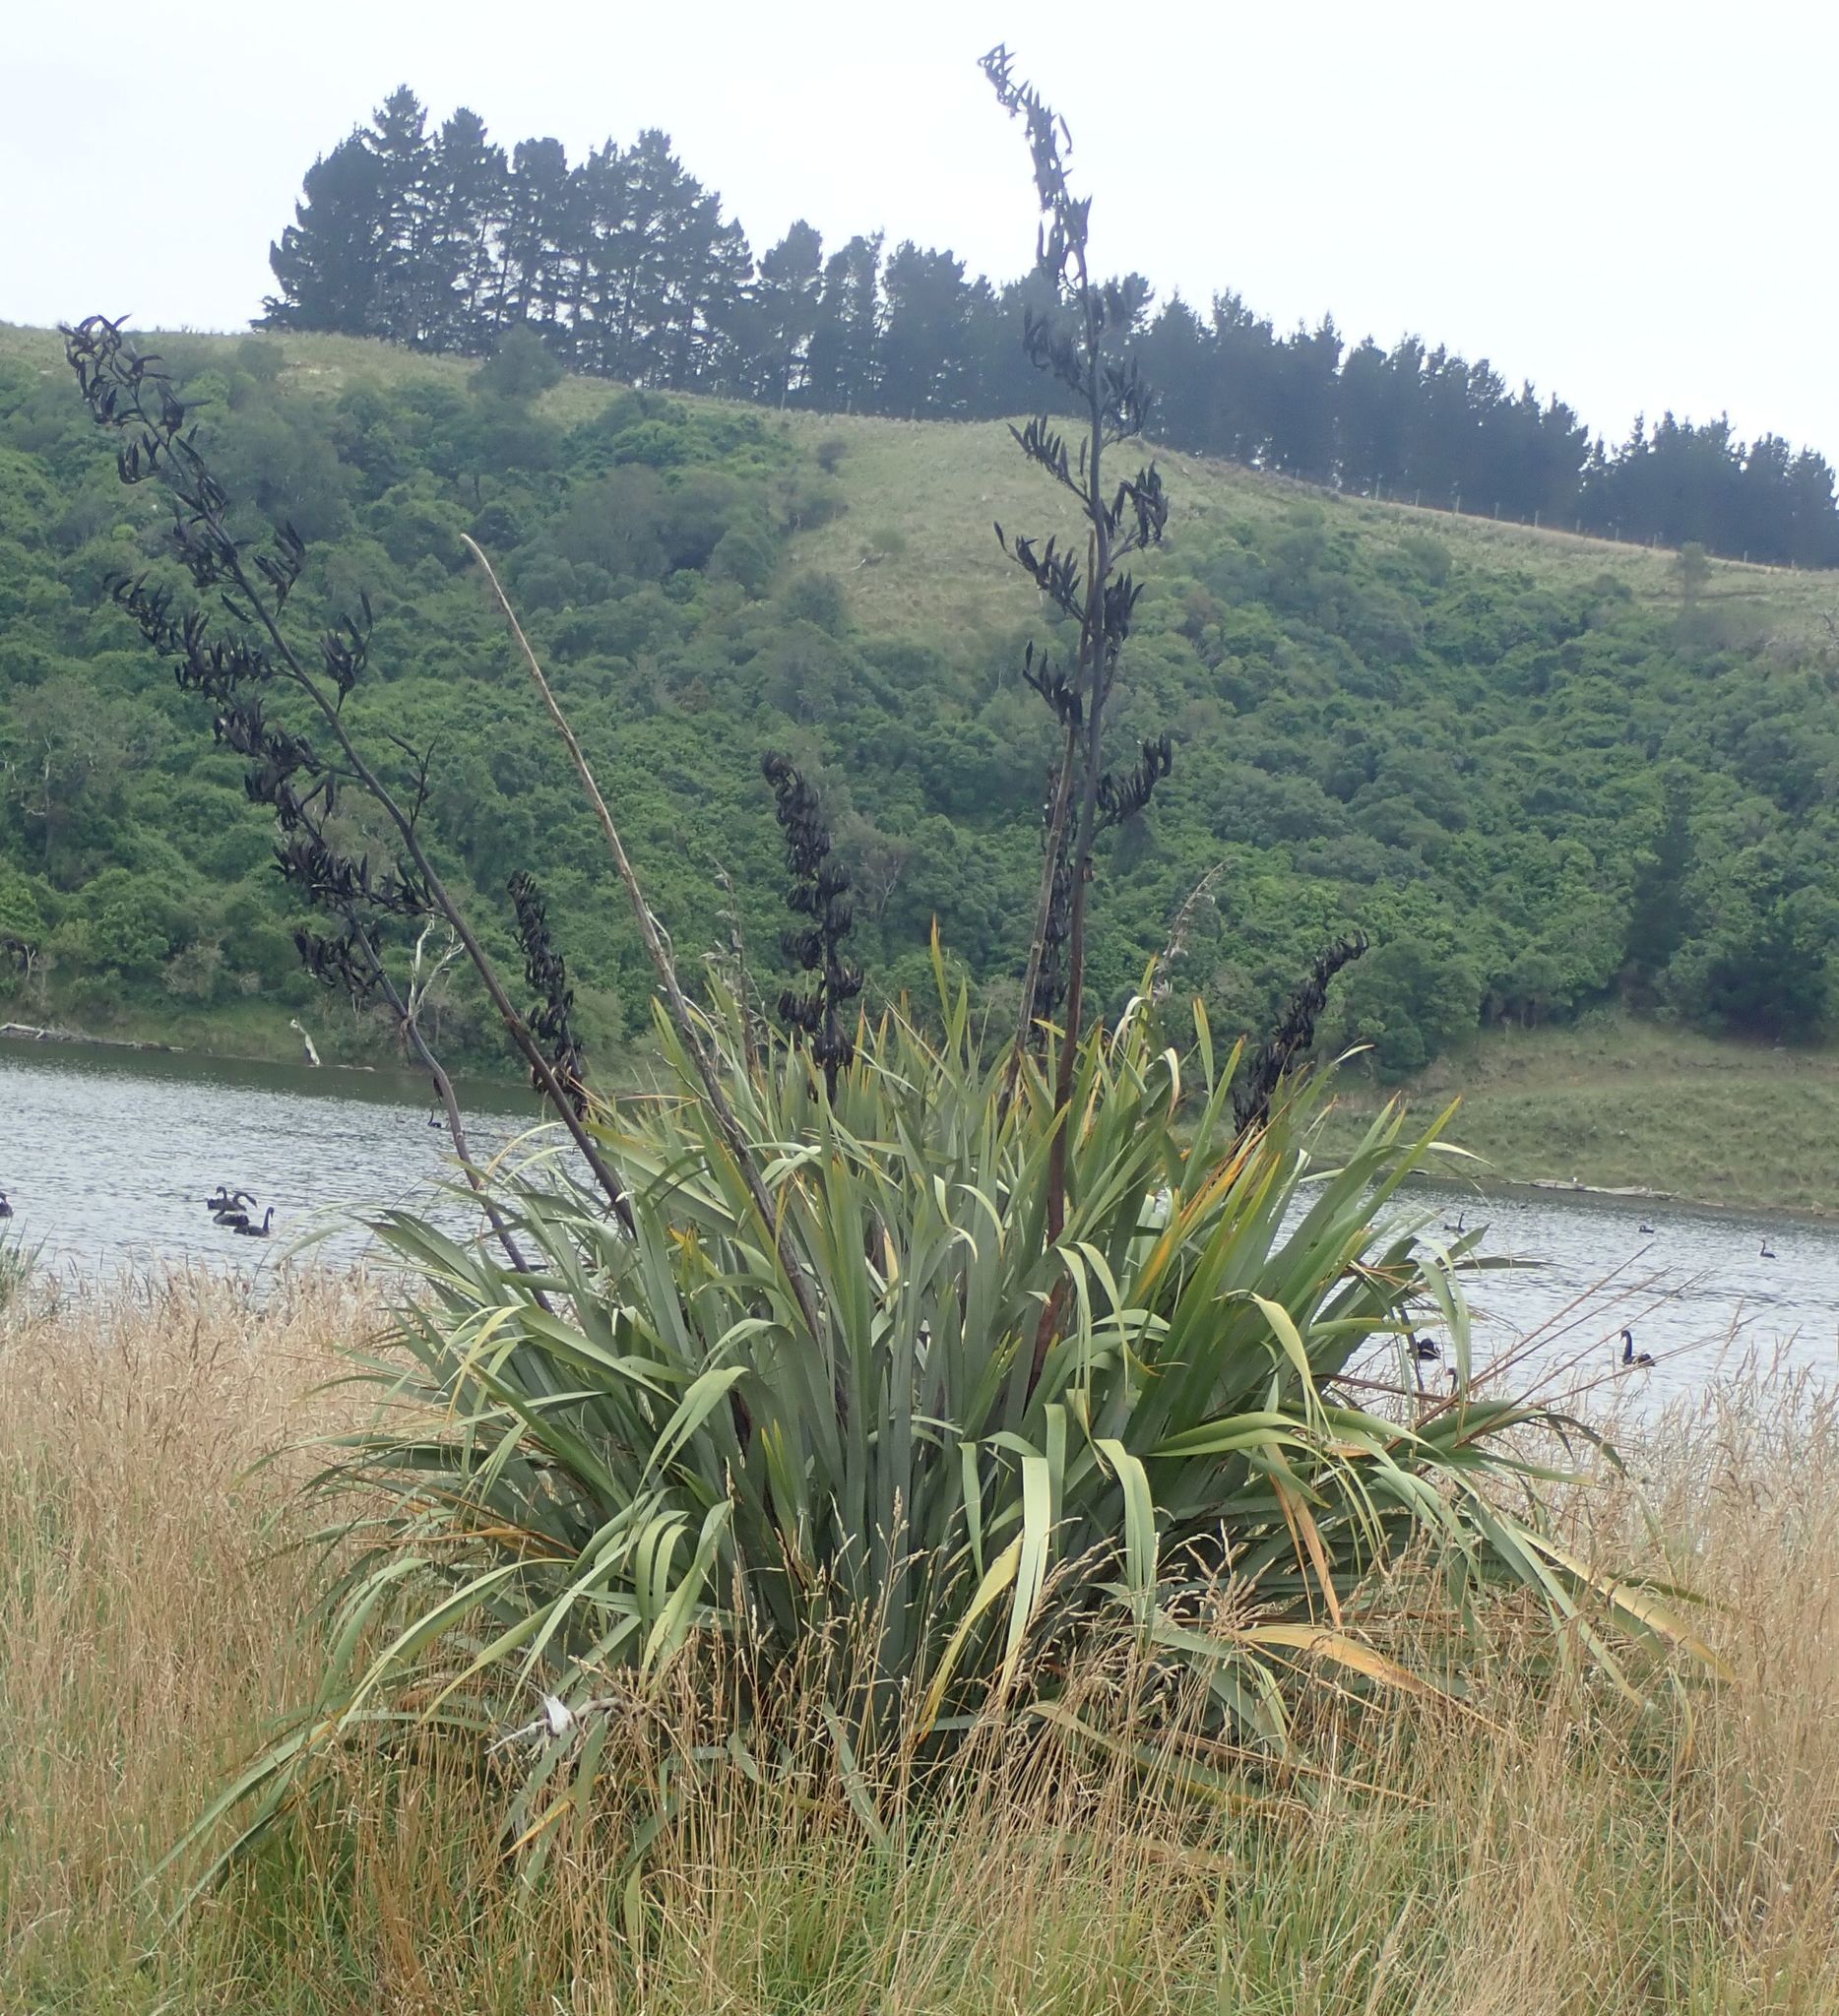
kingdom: Plantae
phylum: Tracheophyta
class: Liliopsida
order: Asparagales
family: Asphodelaceae
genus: Phormium
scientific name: Phormium tenax
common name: New zealand flax
